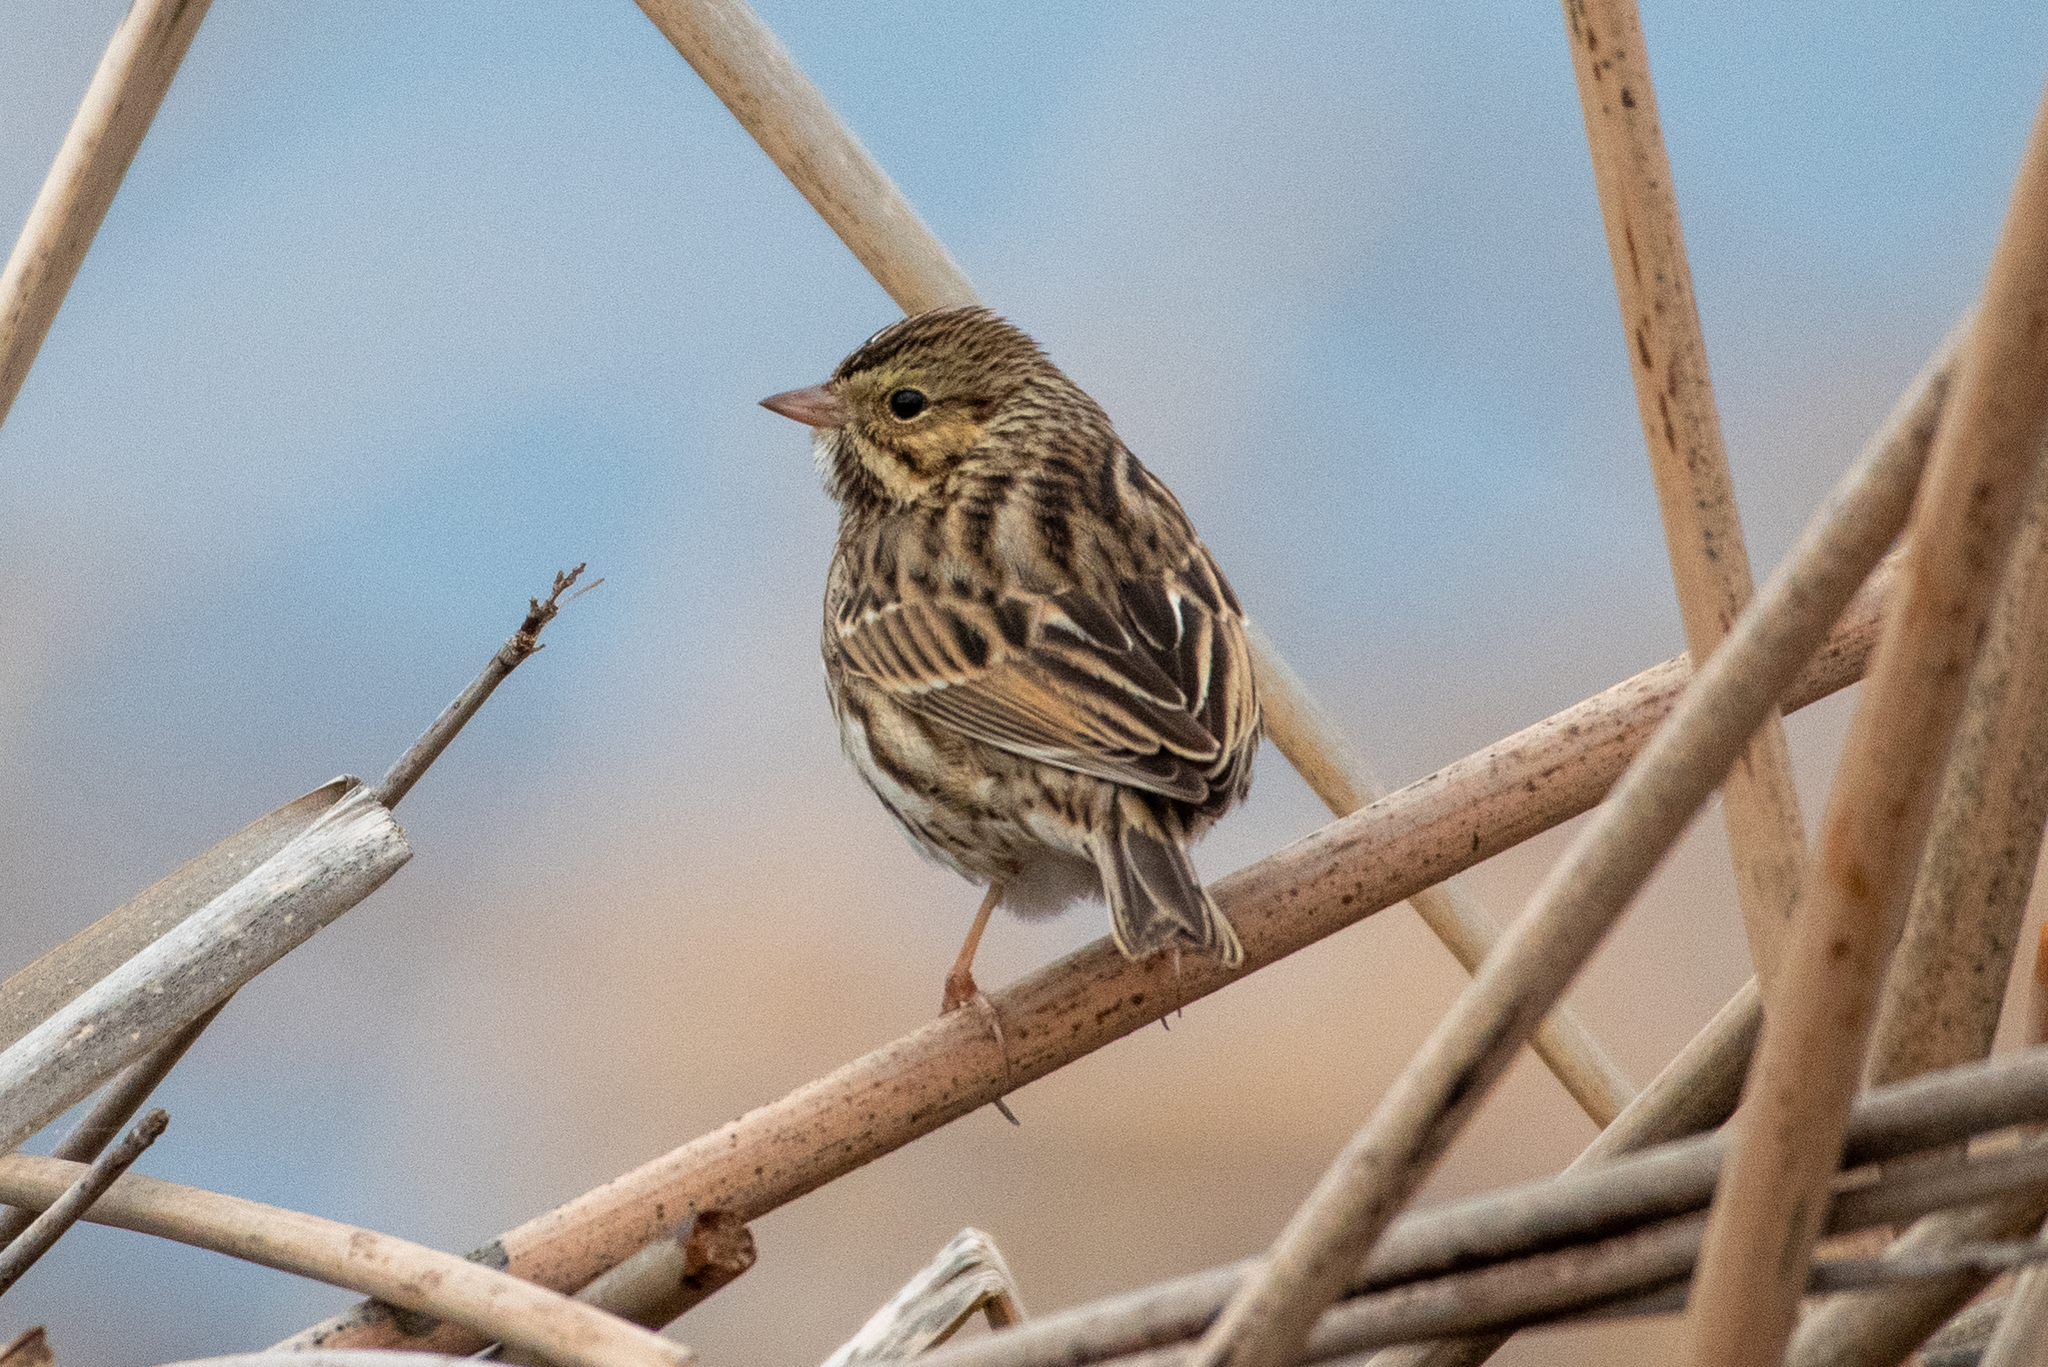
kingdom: Animalia
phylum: Chordata
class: Aves
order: Passeriformes
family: Passerellidae
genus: Passerculus
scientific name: Passerculus sandwichensis
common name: Savannah sparrow
